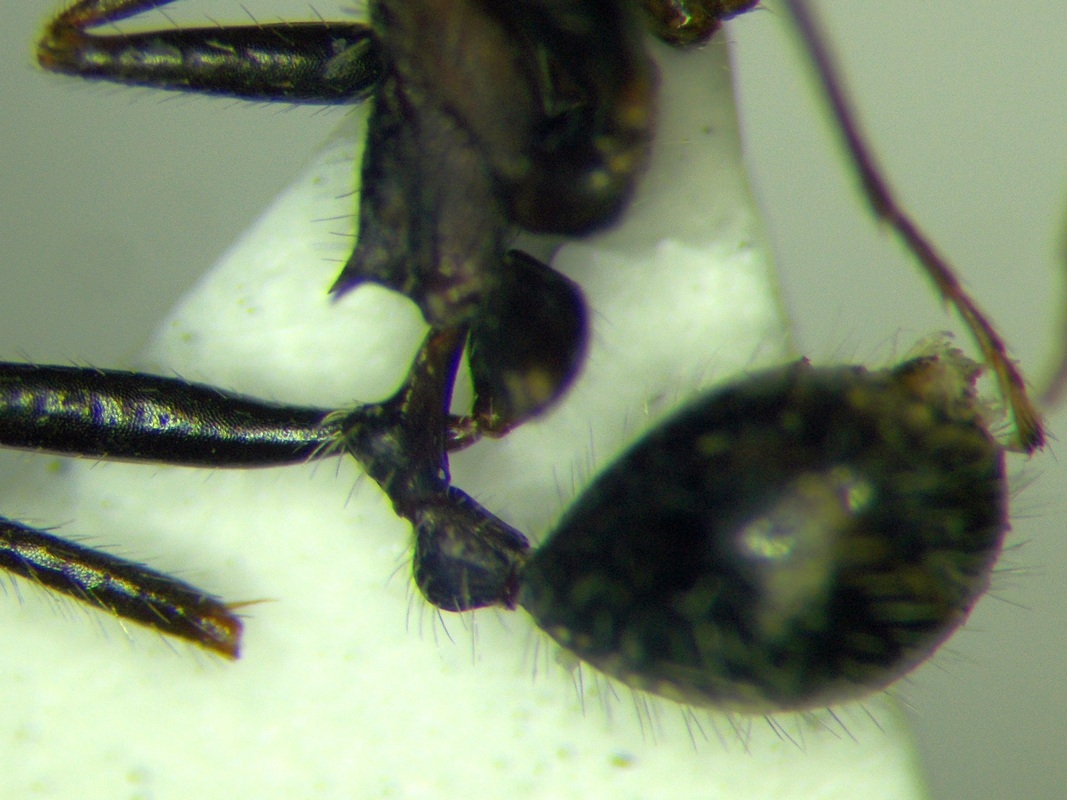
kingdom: Animalia
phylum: Arthropoda
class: Insecta
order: Hymenoptera
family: Formicidae
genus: Aphaenogaster
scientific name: Aphaenogaster simonellii
